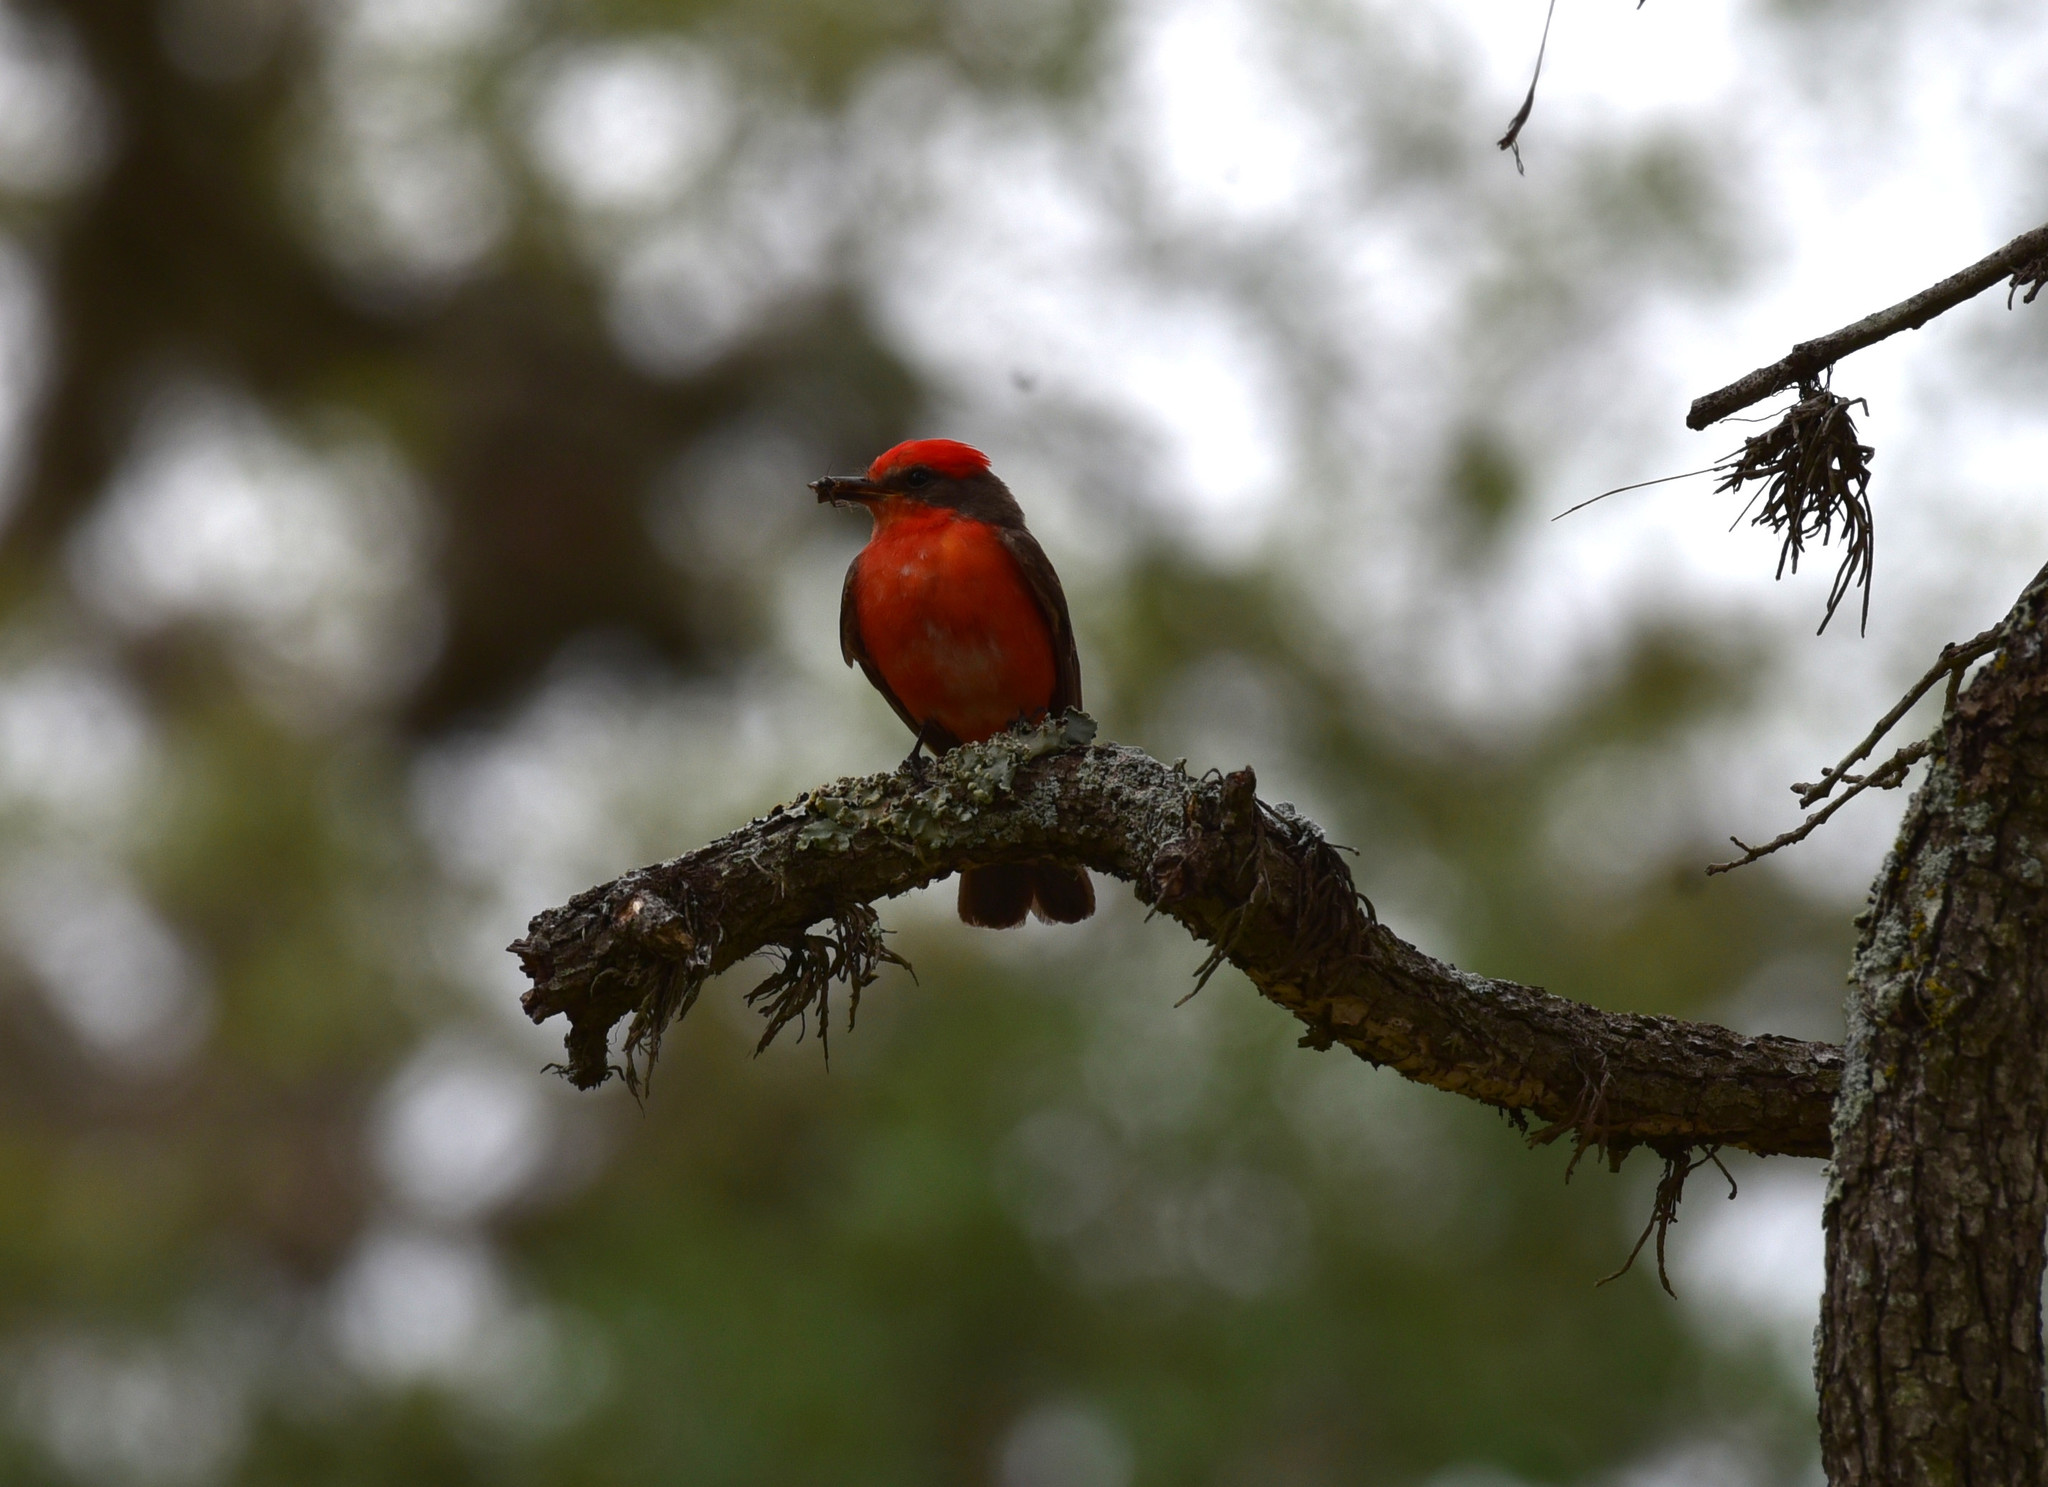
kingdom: Animalia
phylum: Chordata
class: Aves
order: Passeriformes
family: Tyrannidae
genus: Pyrocephalus
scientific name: Pyrocephalus rubinus
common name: Vermilion flycatcher
